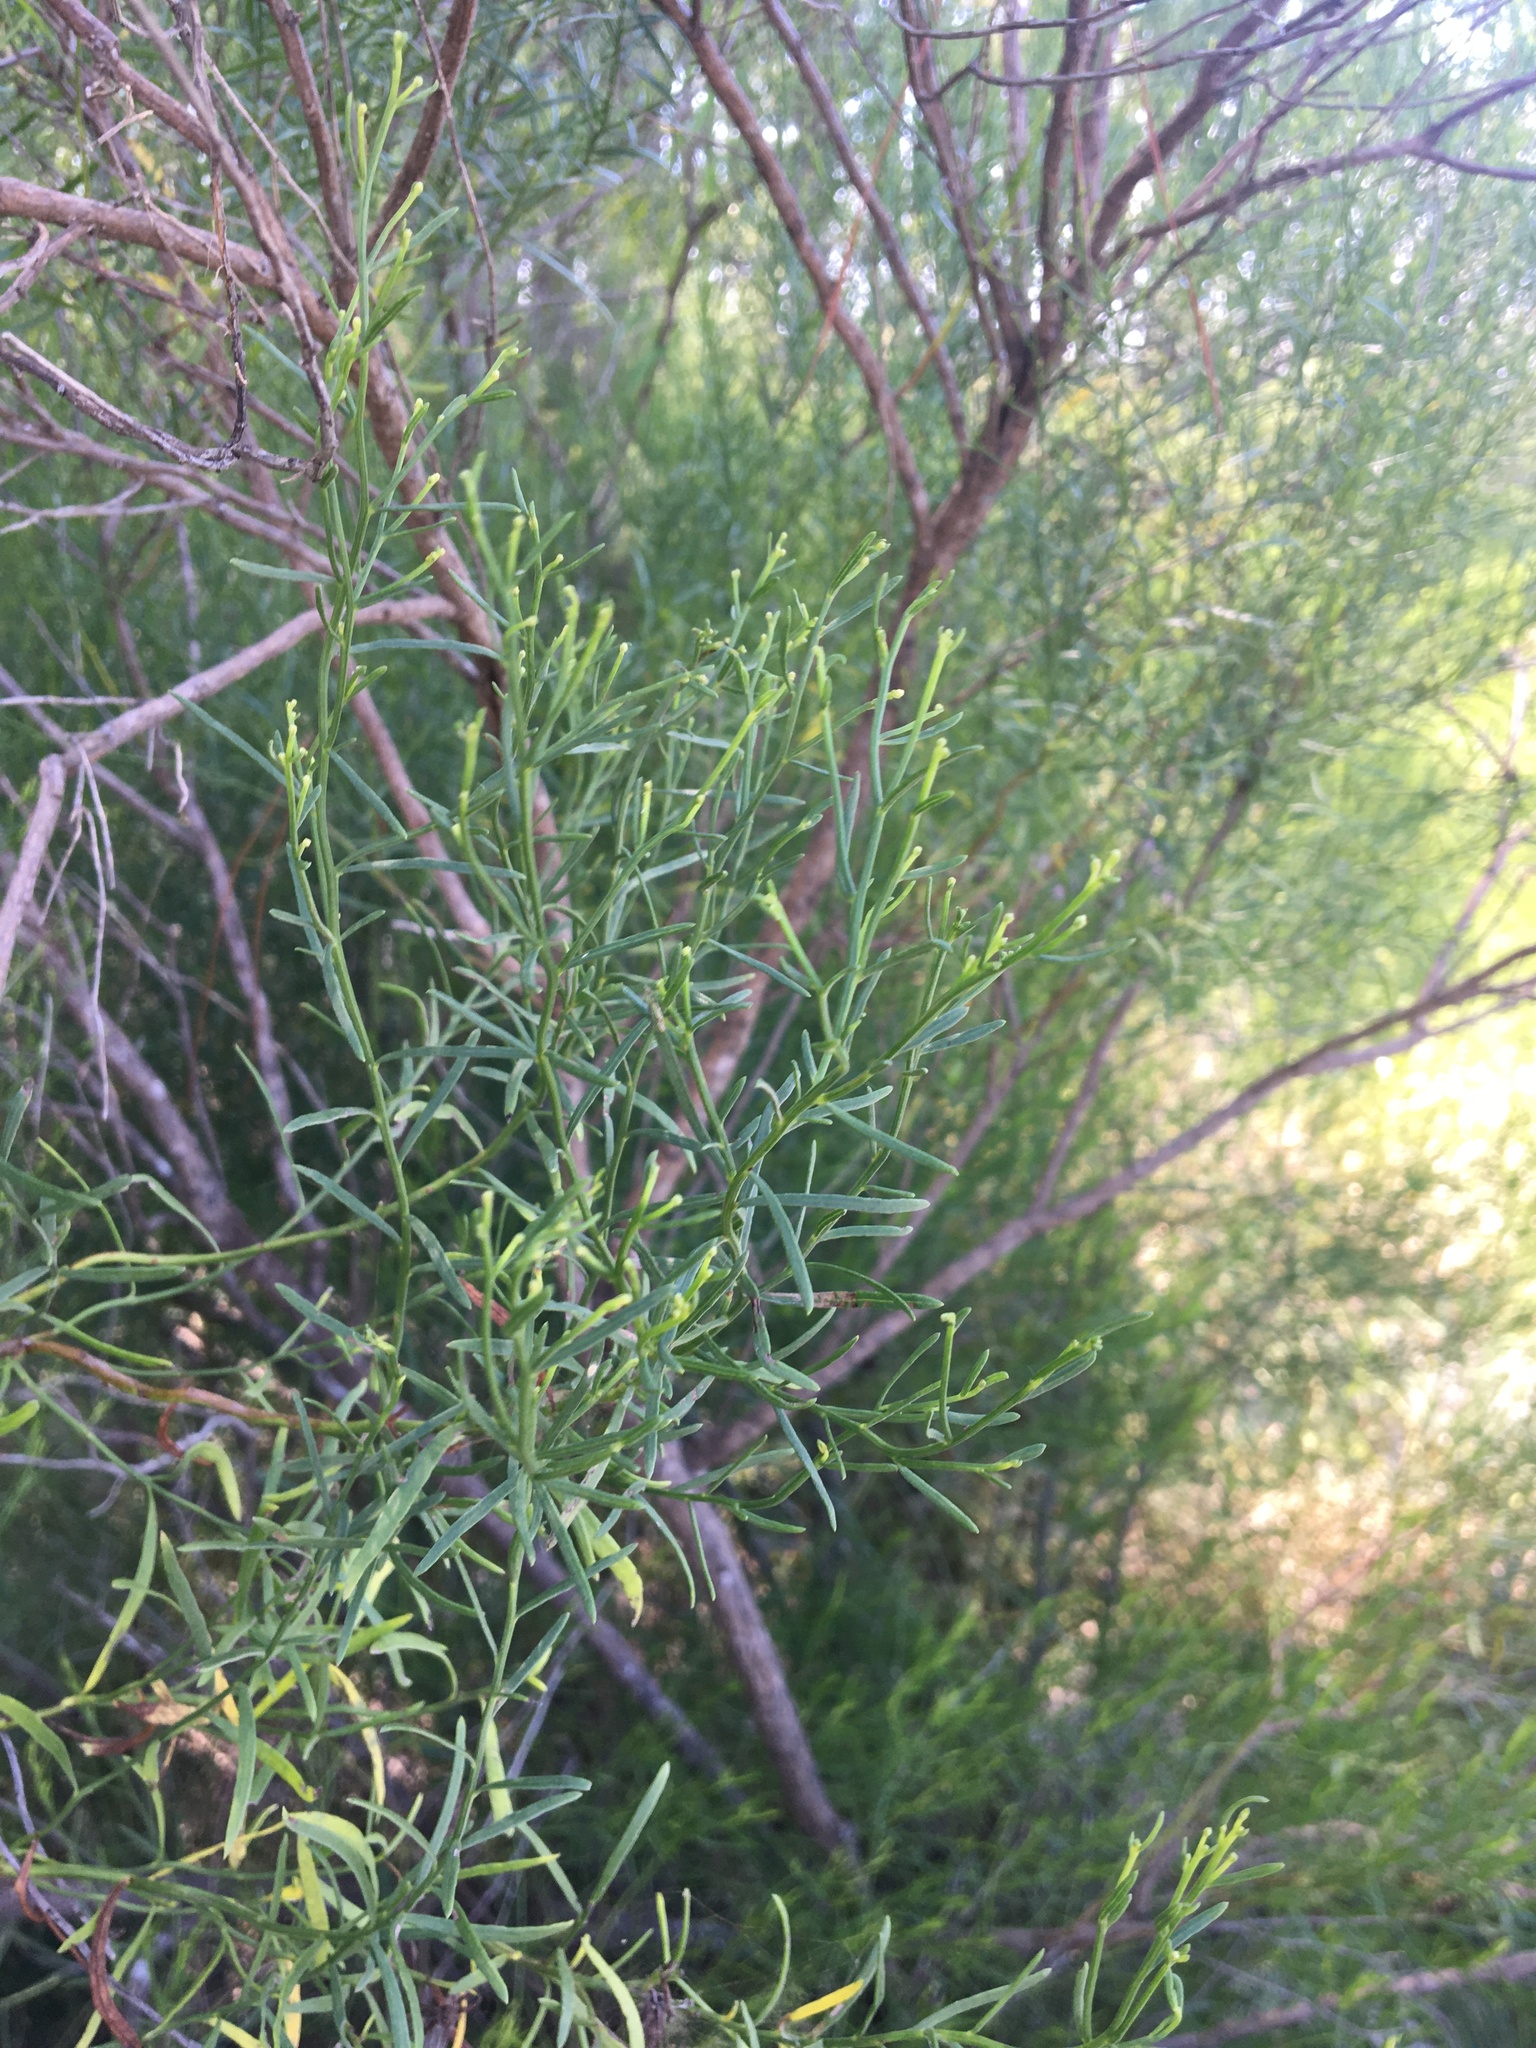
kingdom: Plantae
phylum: Tracheophyta
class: Magnoliopsida
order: Asterales
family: Asteraceae
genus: Baccharis
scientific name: Baccharis angustifolia
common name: Narrow-leaf baccharis
